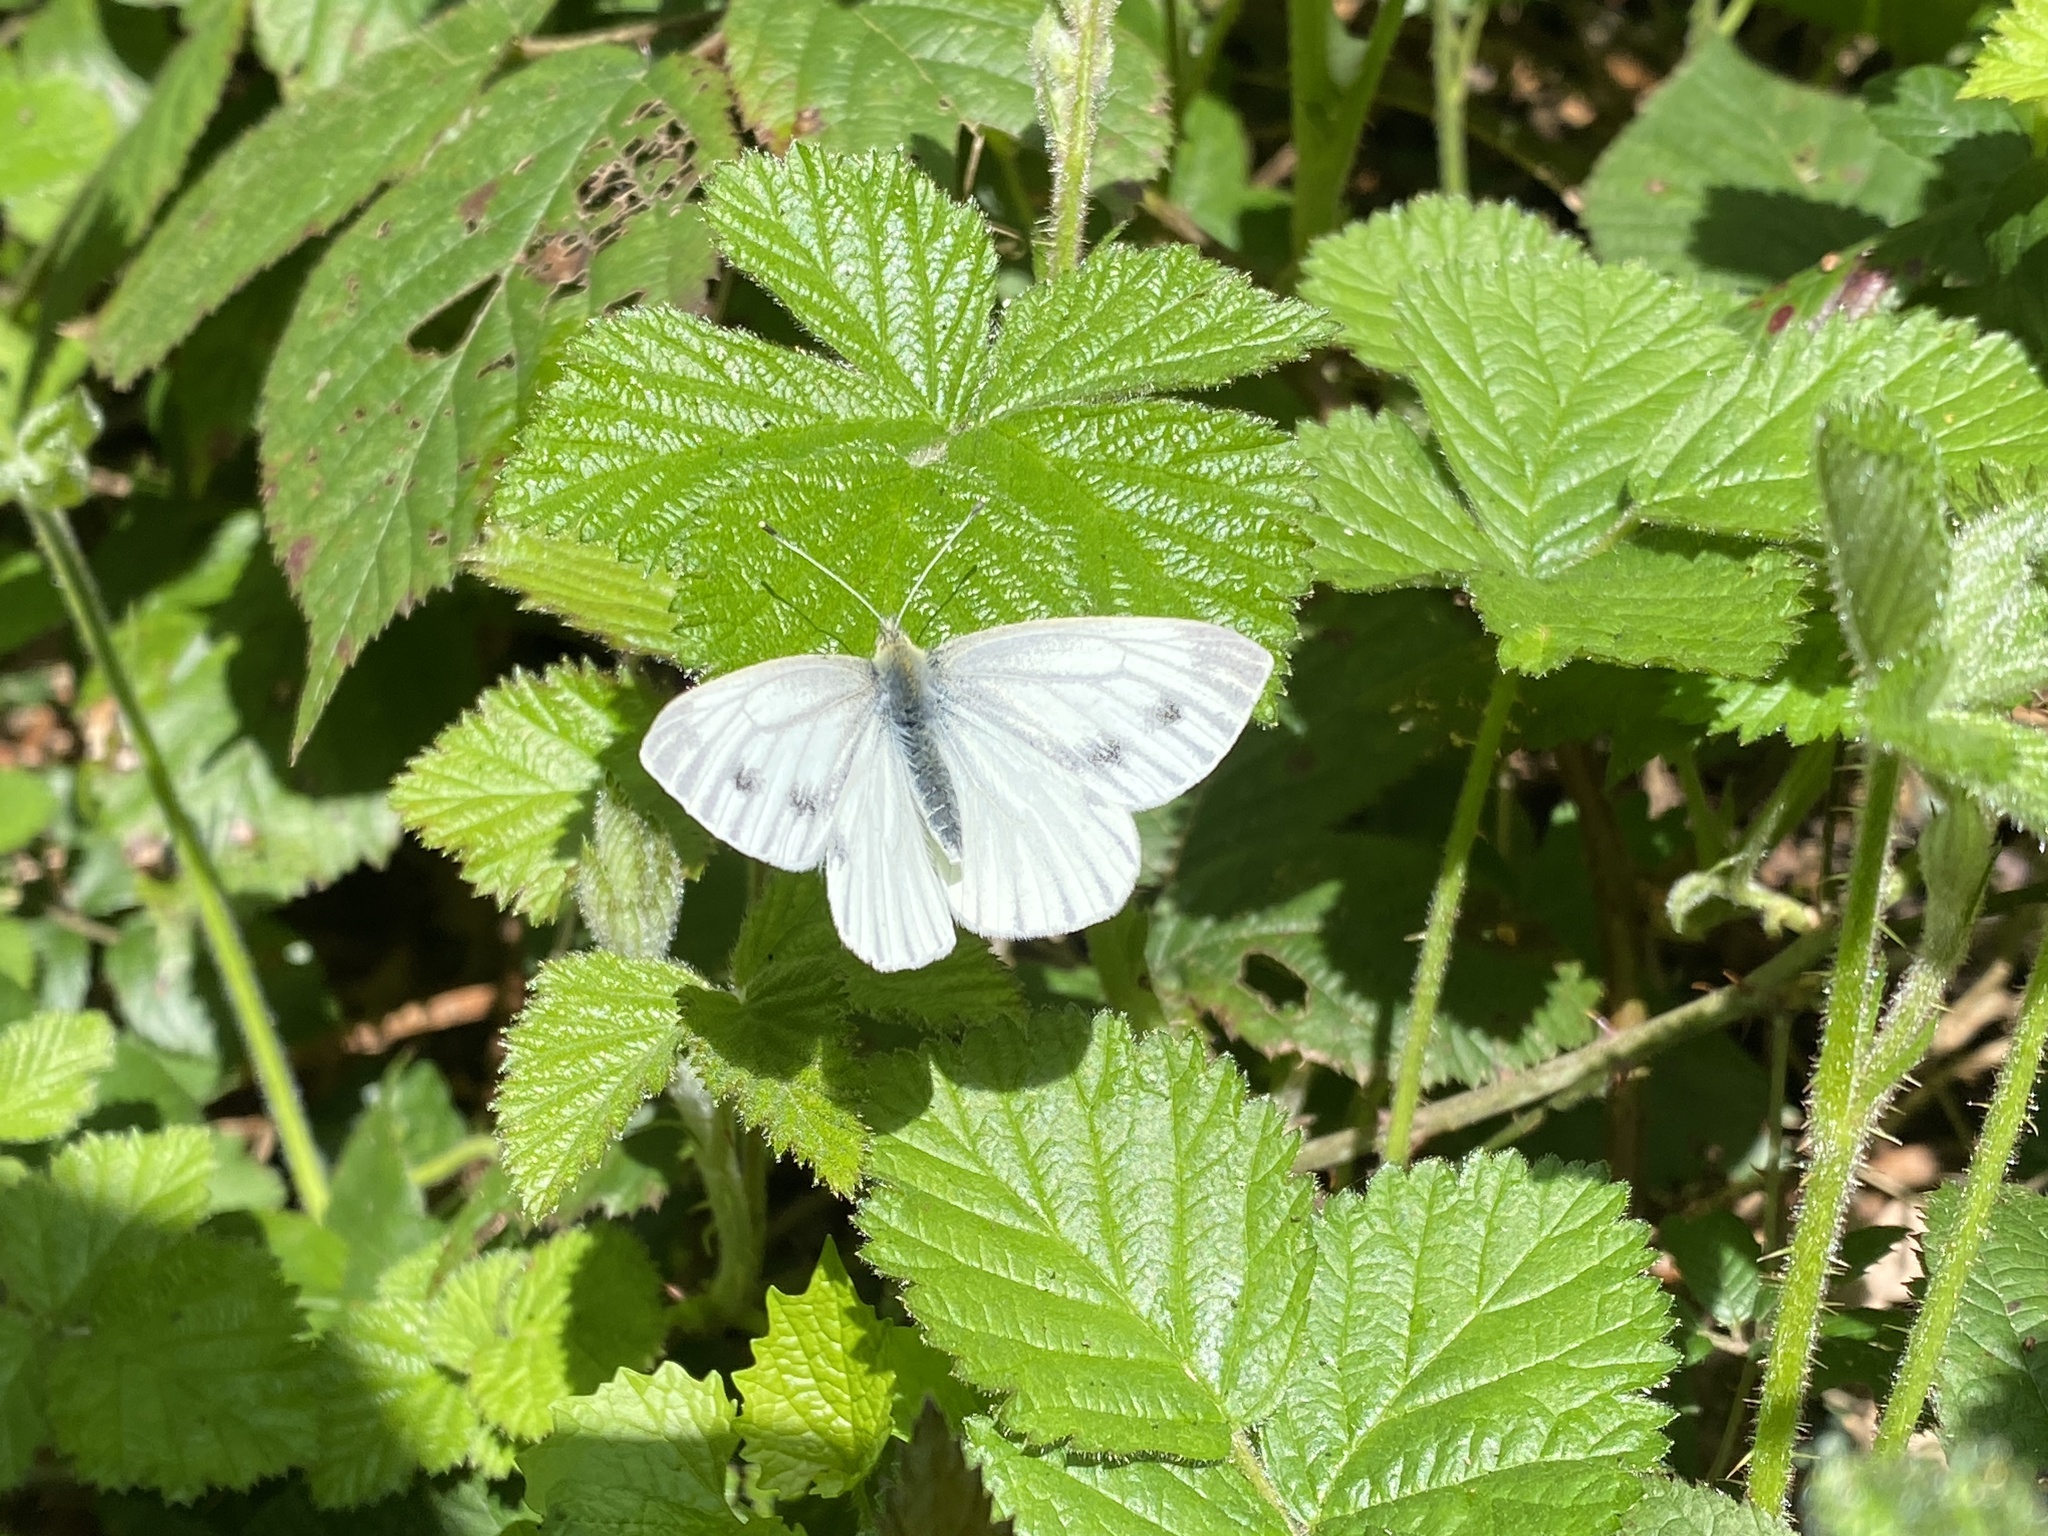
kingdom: Animalia
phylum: Arthropoda
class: Insecta
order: Lepidoptera
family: Pieridae
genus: Pieris
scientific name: Pieris napi
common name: Green-veined white
